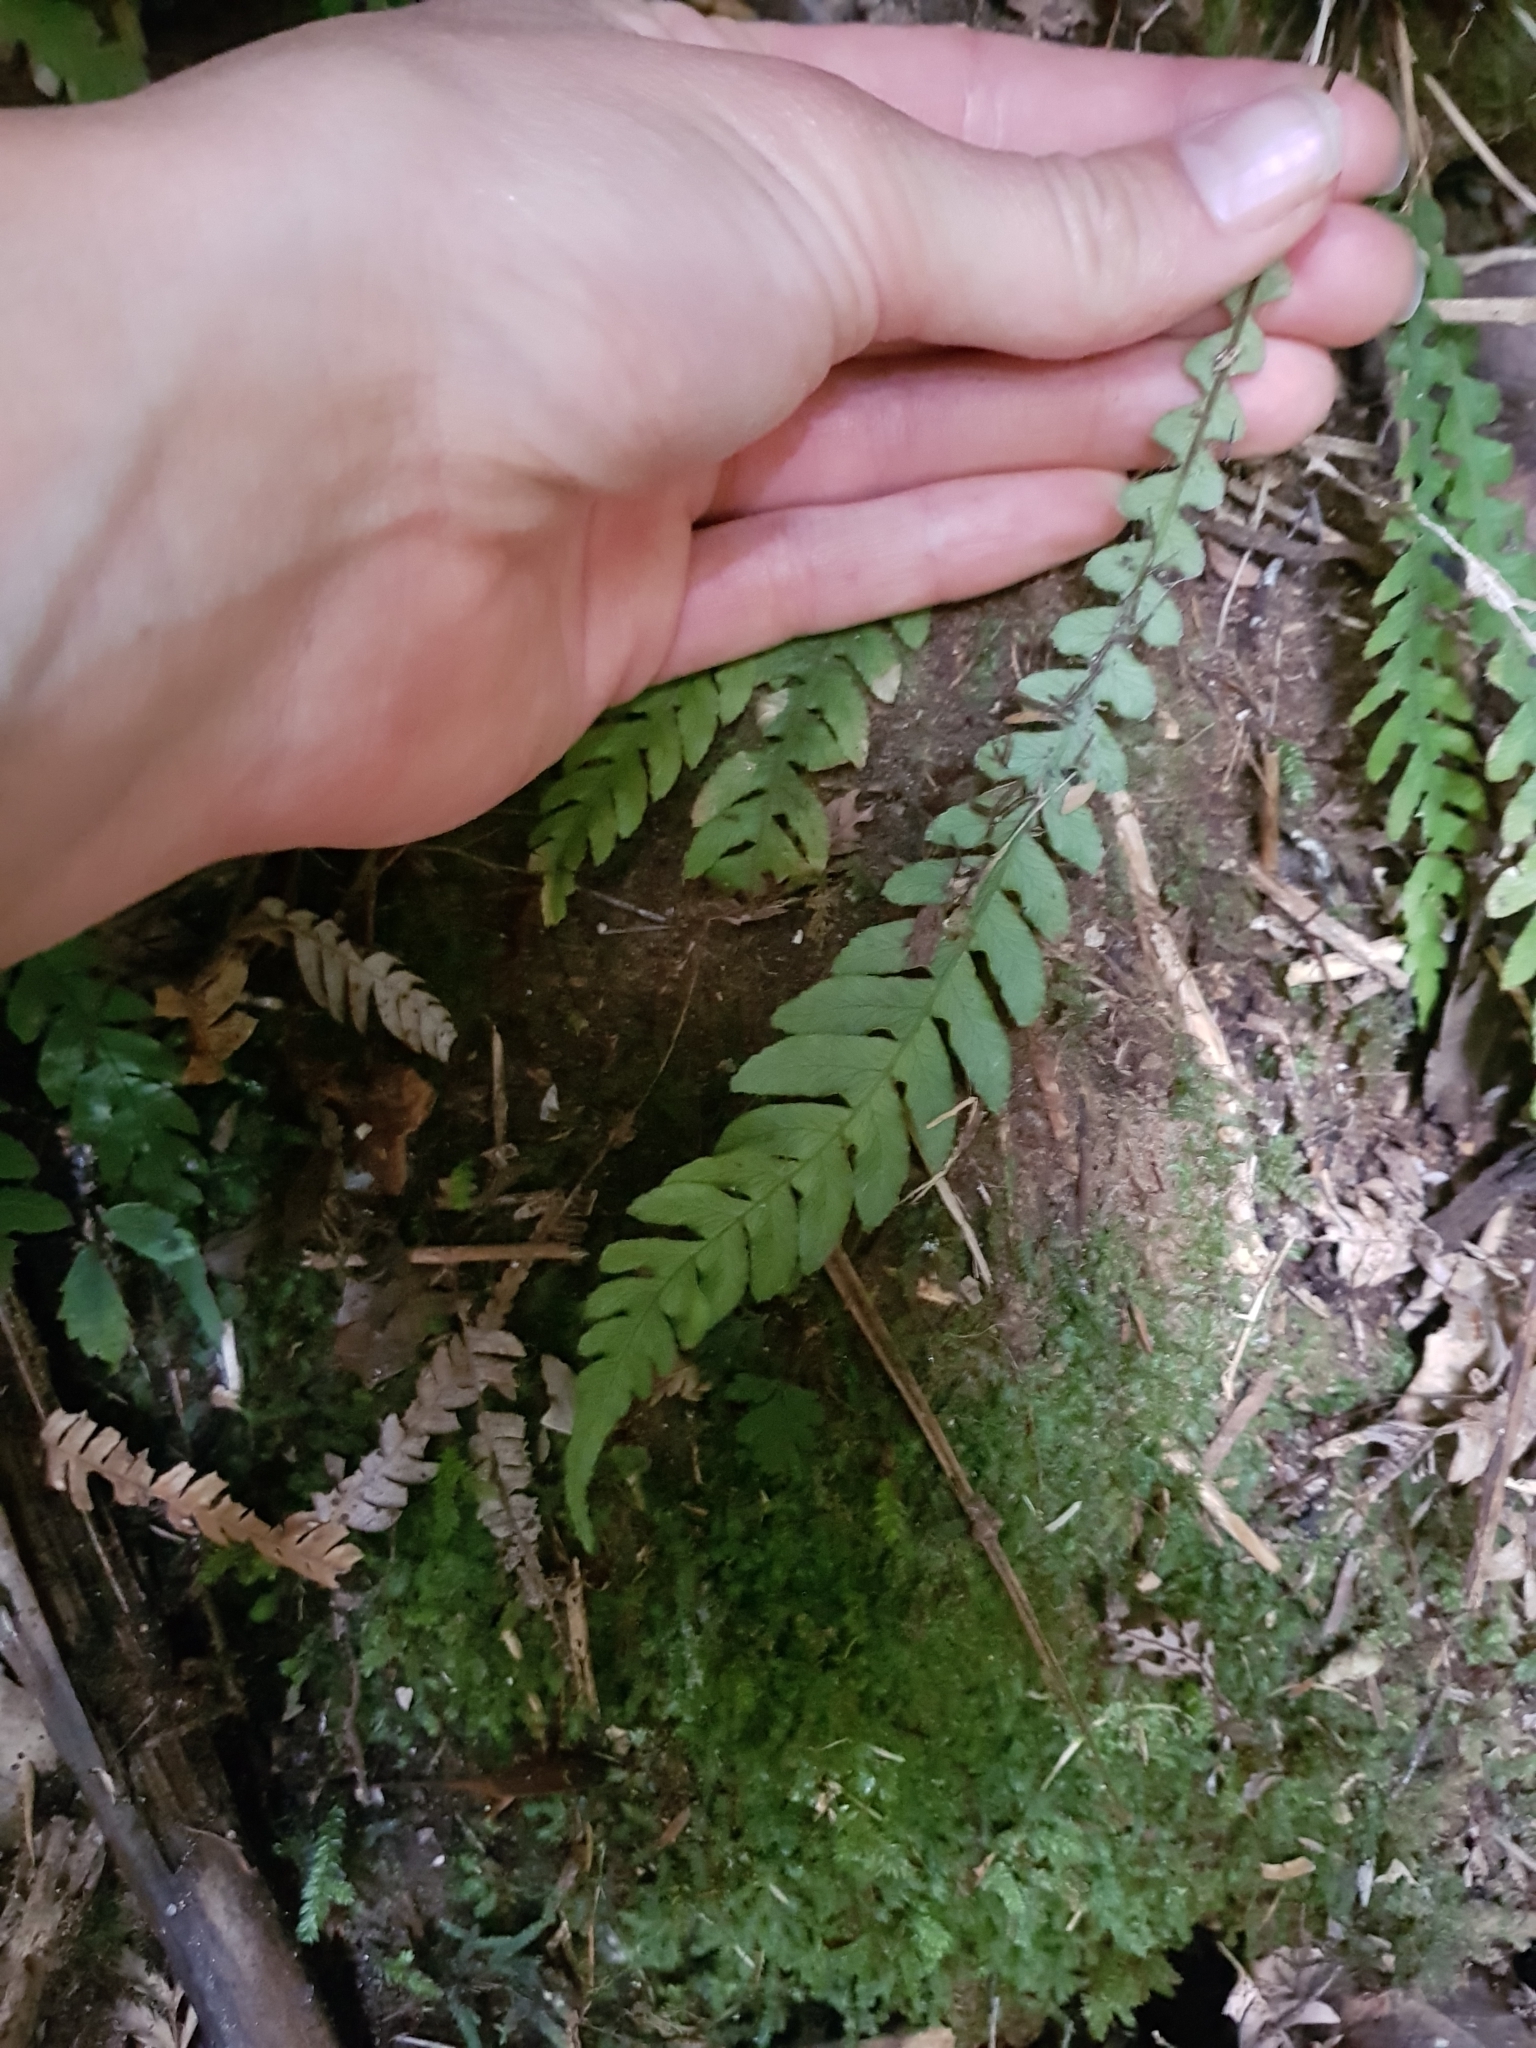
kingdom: Plantae
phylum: Tracheophyta
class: Polypodiopsida
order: Polypodiales
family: Blechnaceae
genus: Austroblechnum
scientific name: Austroblechnum membranaceum
